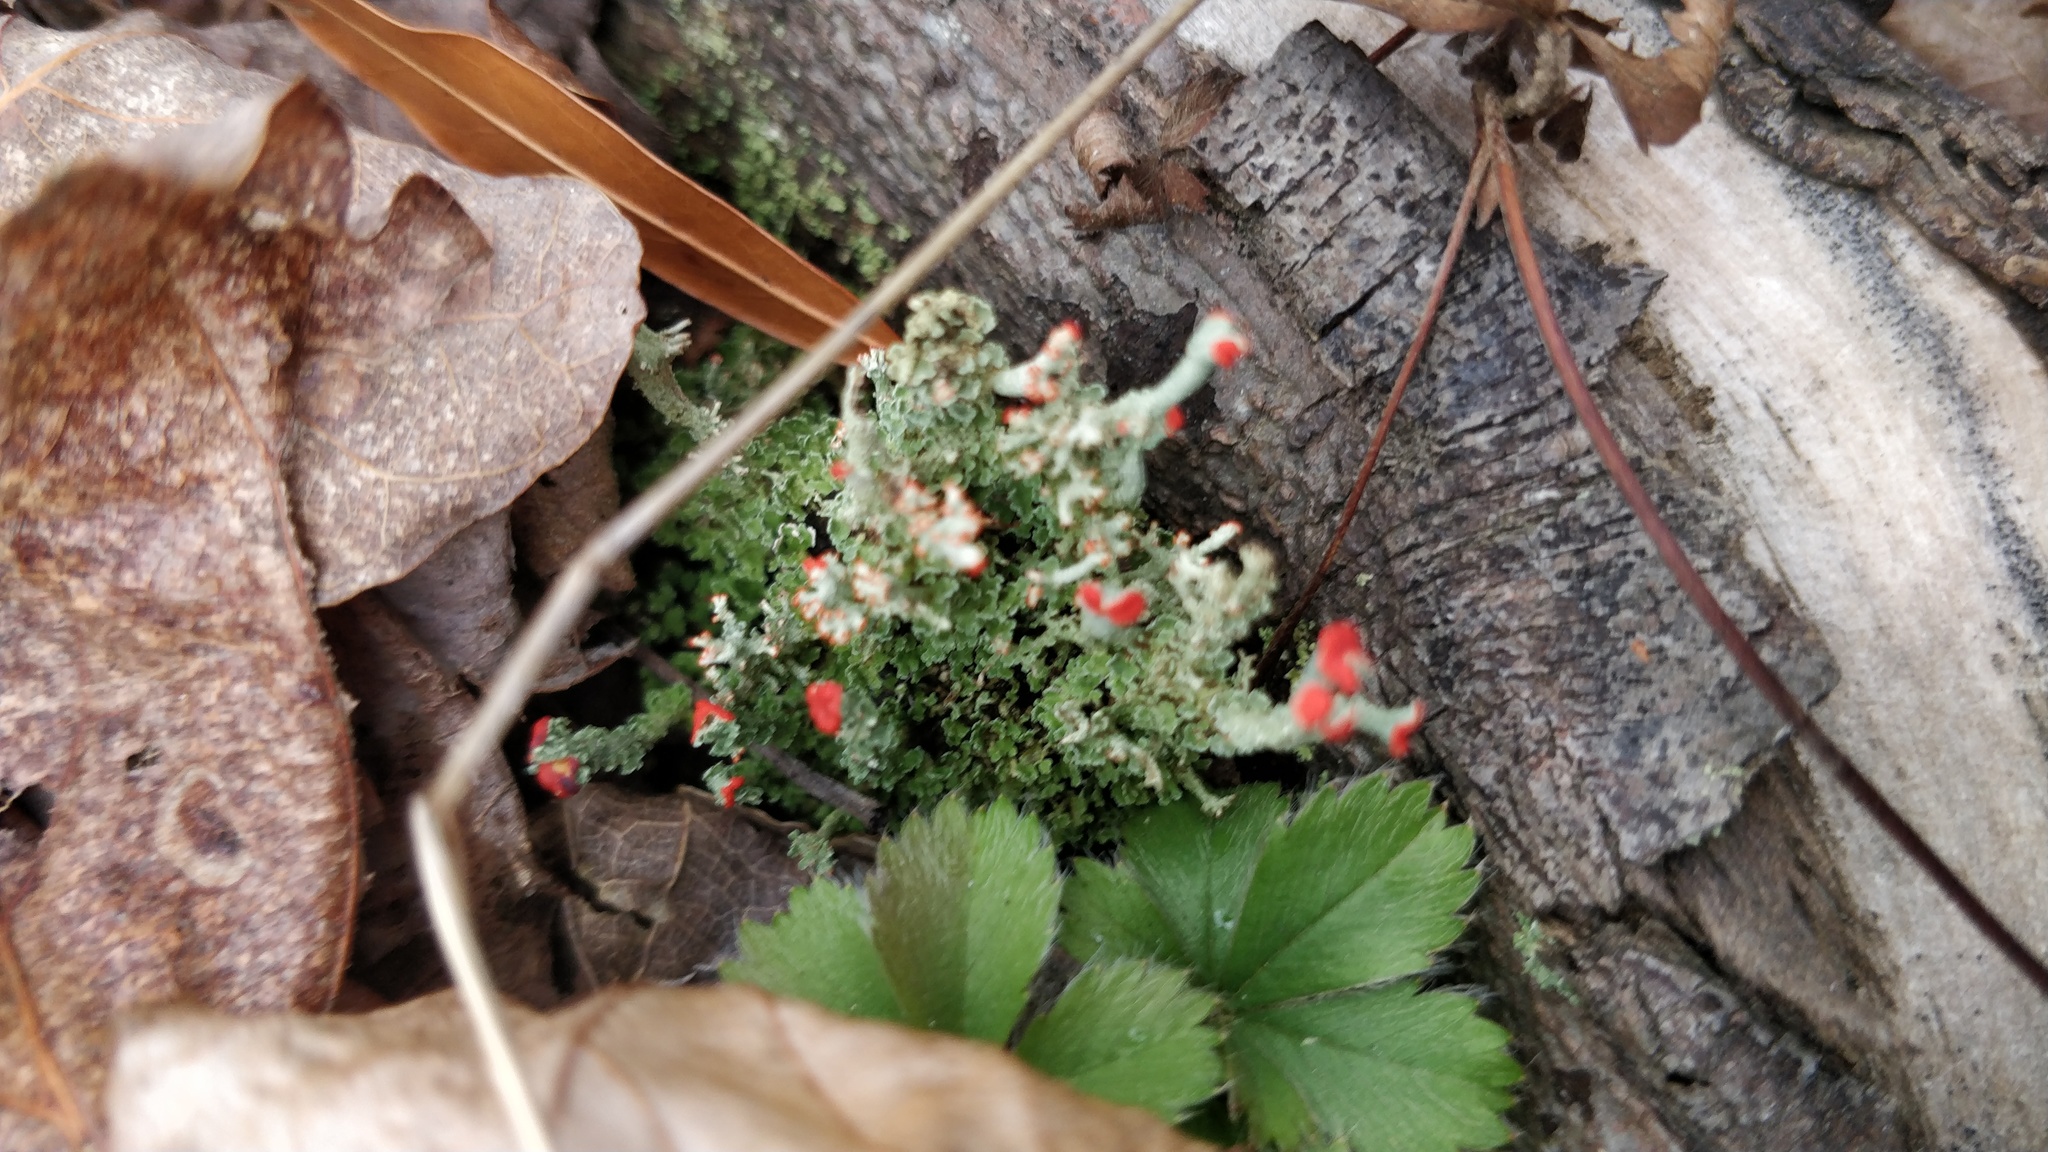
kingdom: Fungi
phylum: Ascomycota
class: Lecanoromycetes
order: Lecanorales
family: Cladoniaceae
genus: Cladonia
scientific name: Cladonia cristatella
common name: British soldier lichen
